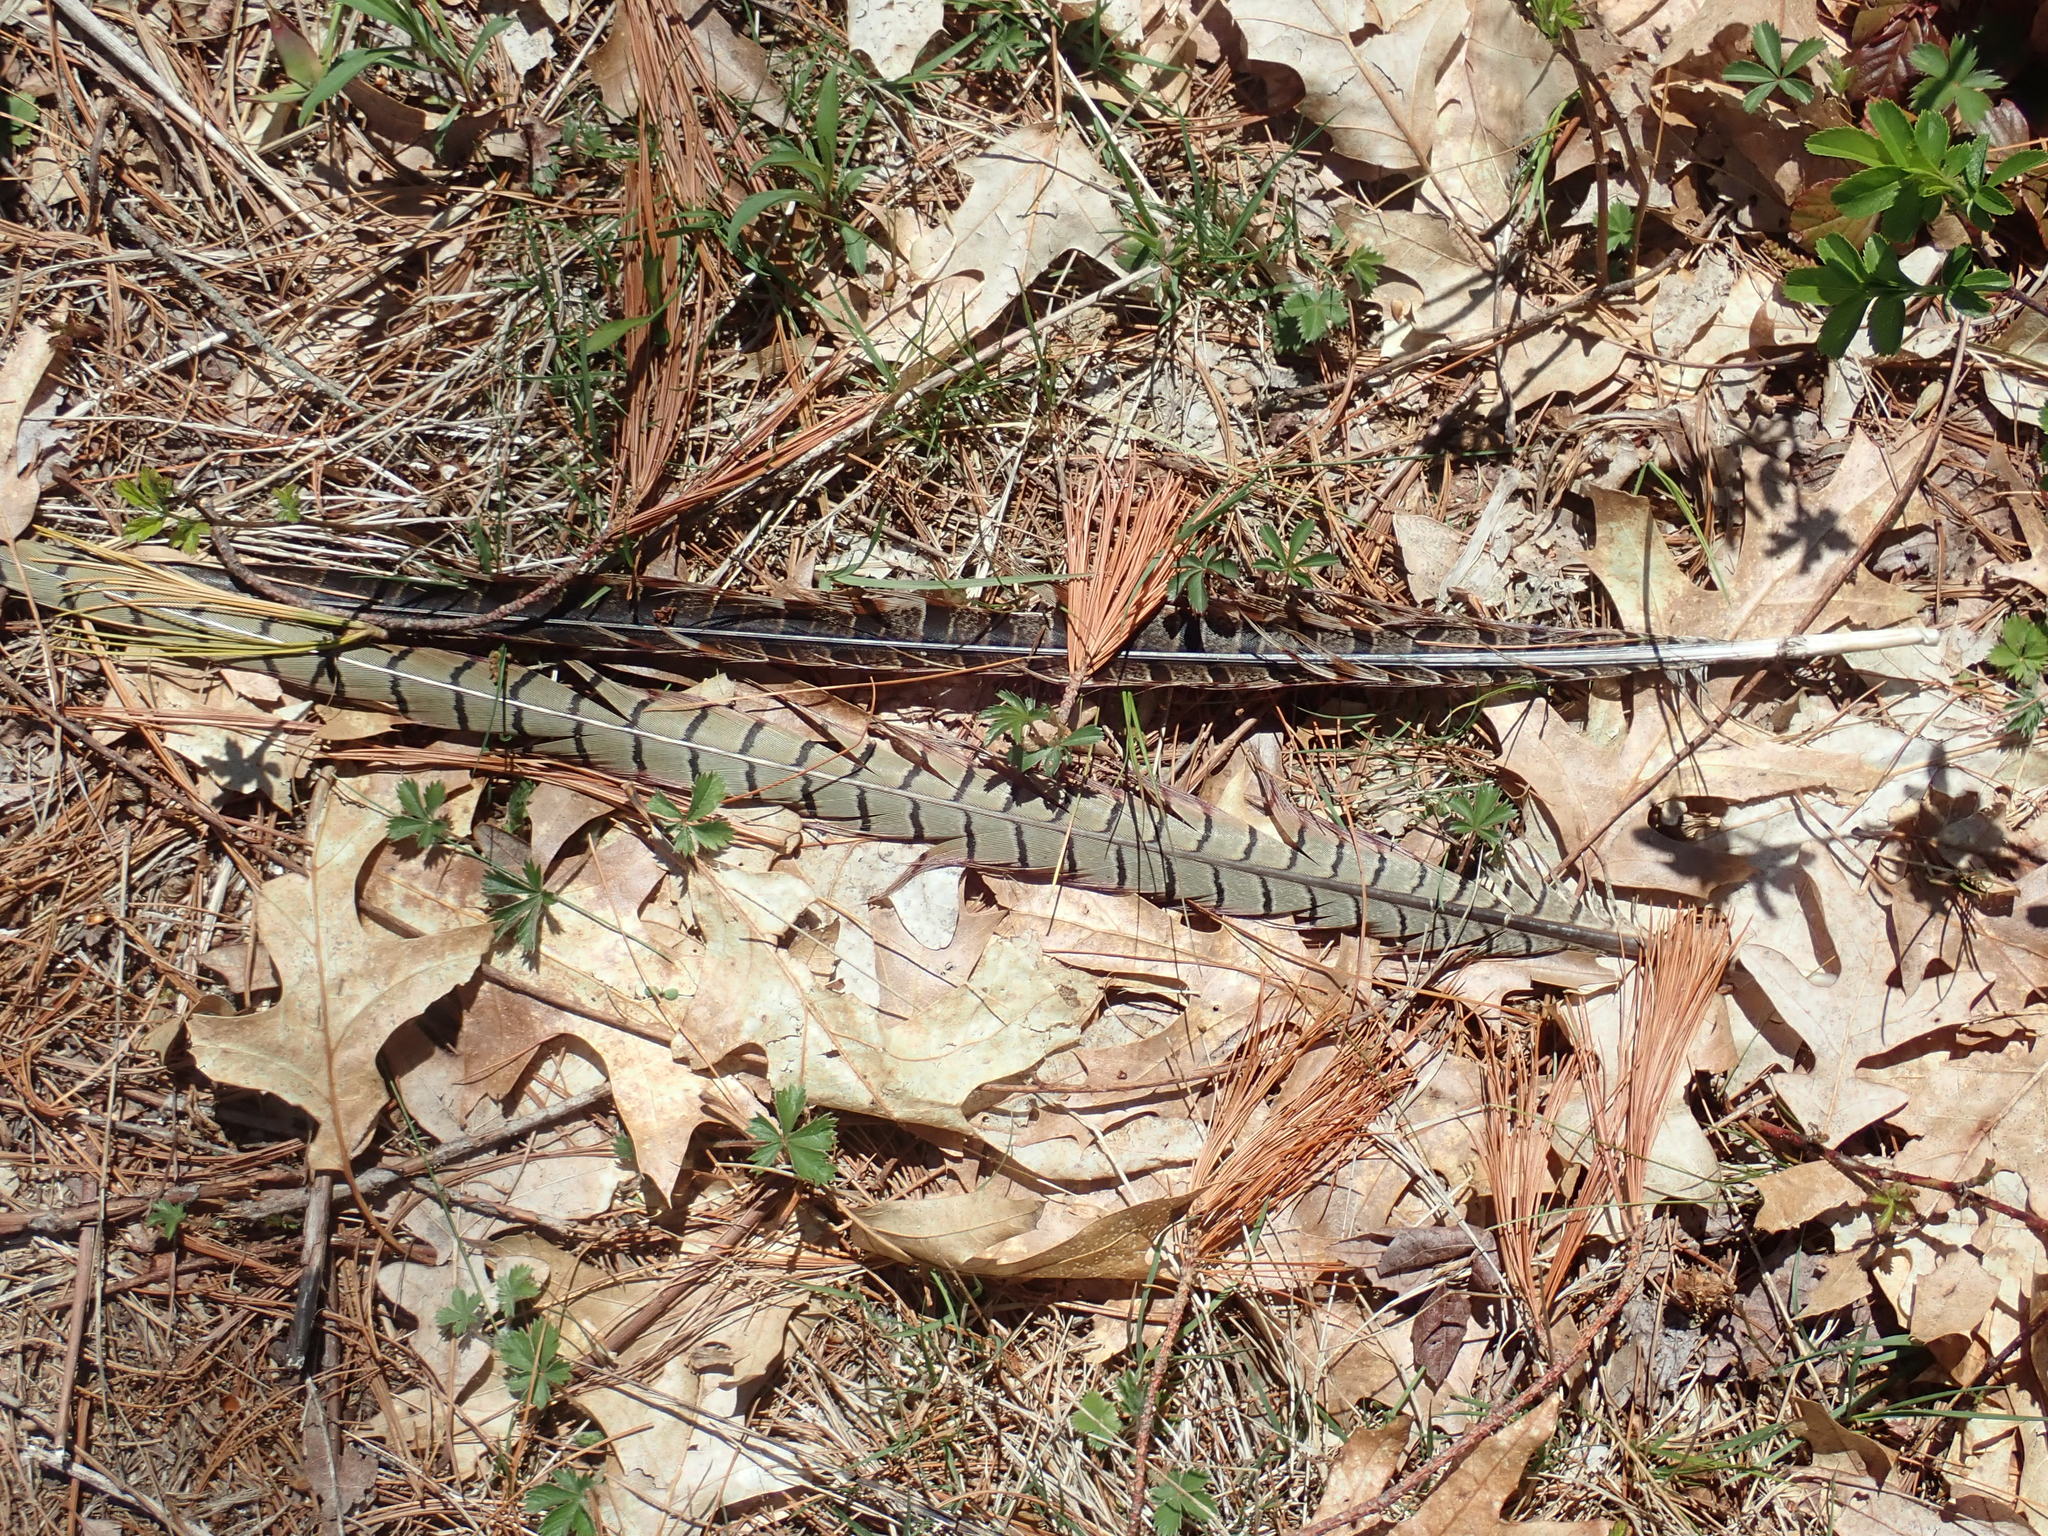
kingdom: Animalia
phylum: Chordata
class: Aves
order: Galliformes
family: Phasianidae
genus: Phasianus
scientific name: Phasianus colchicus
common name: Common pheasant
